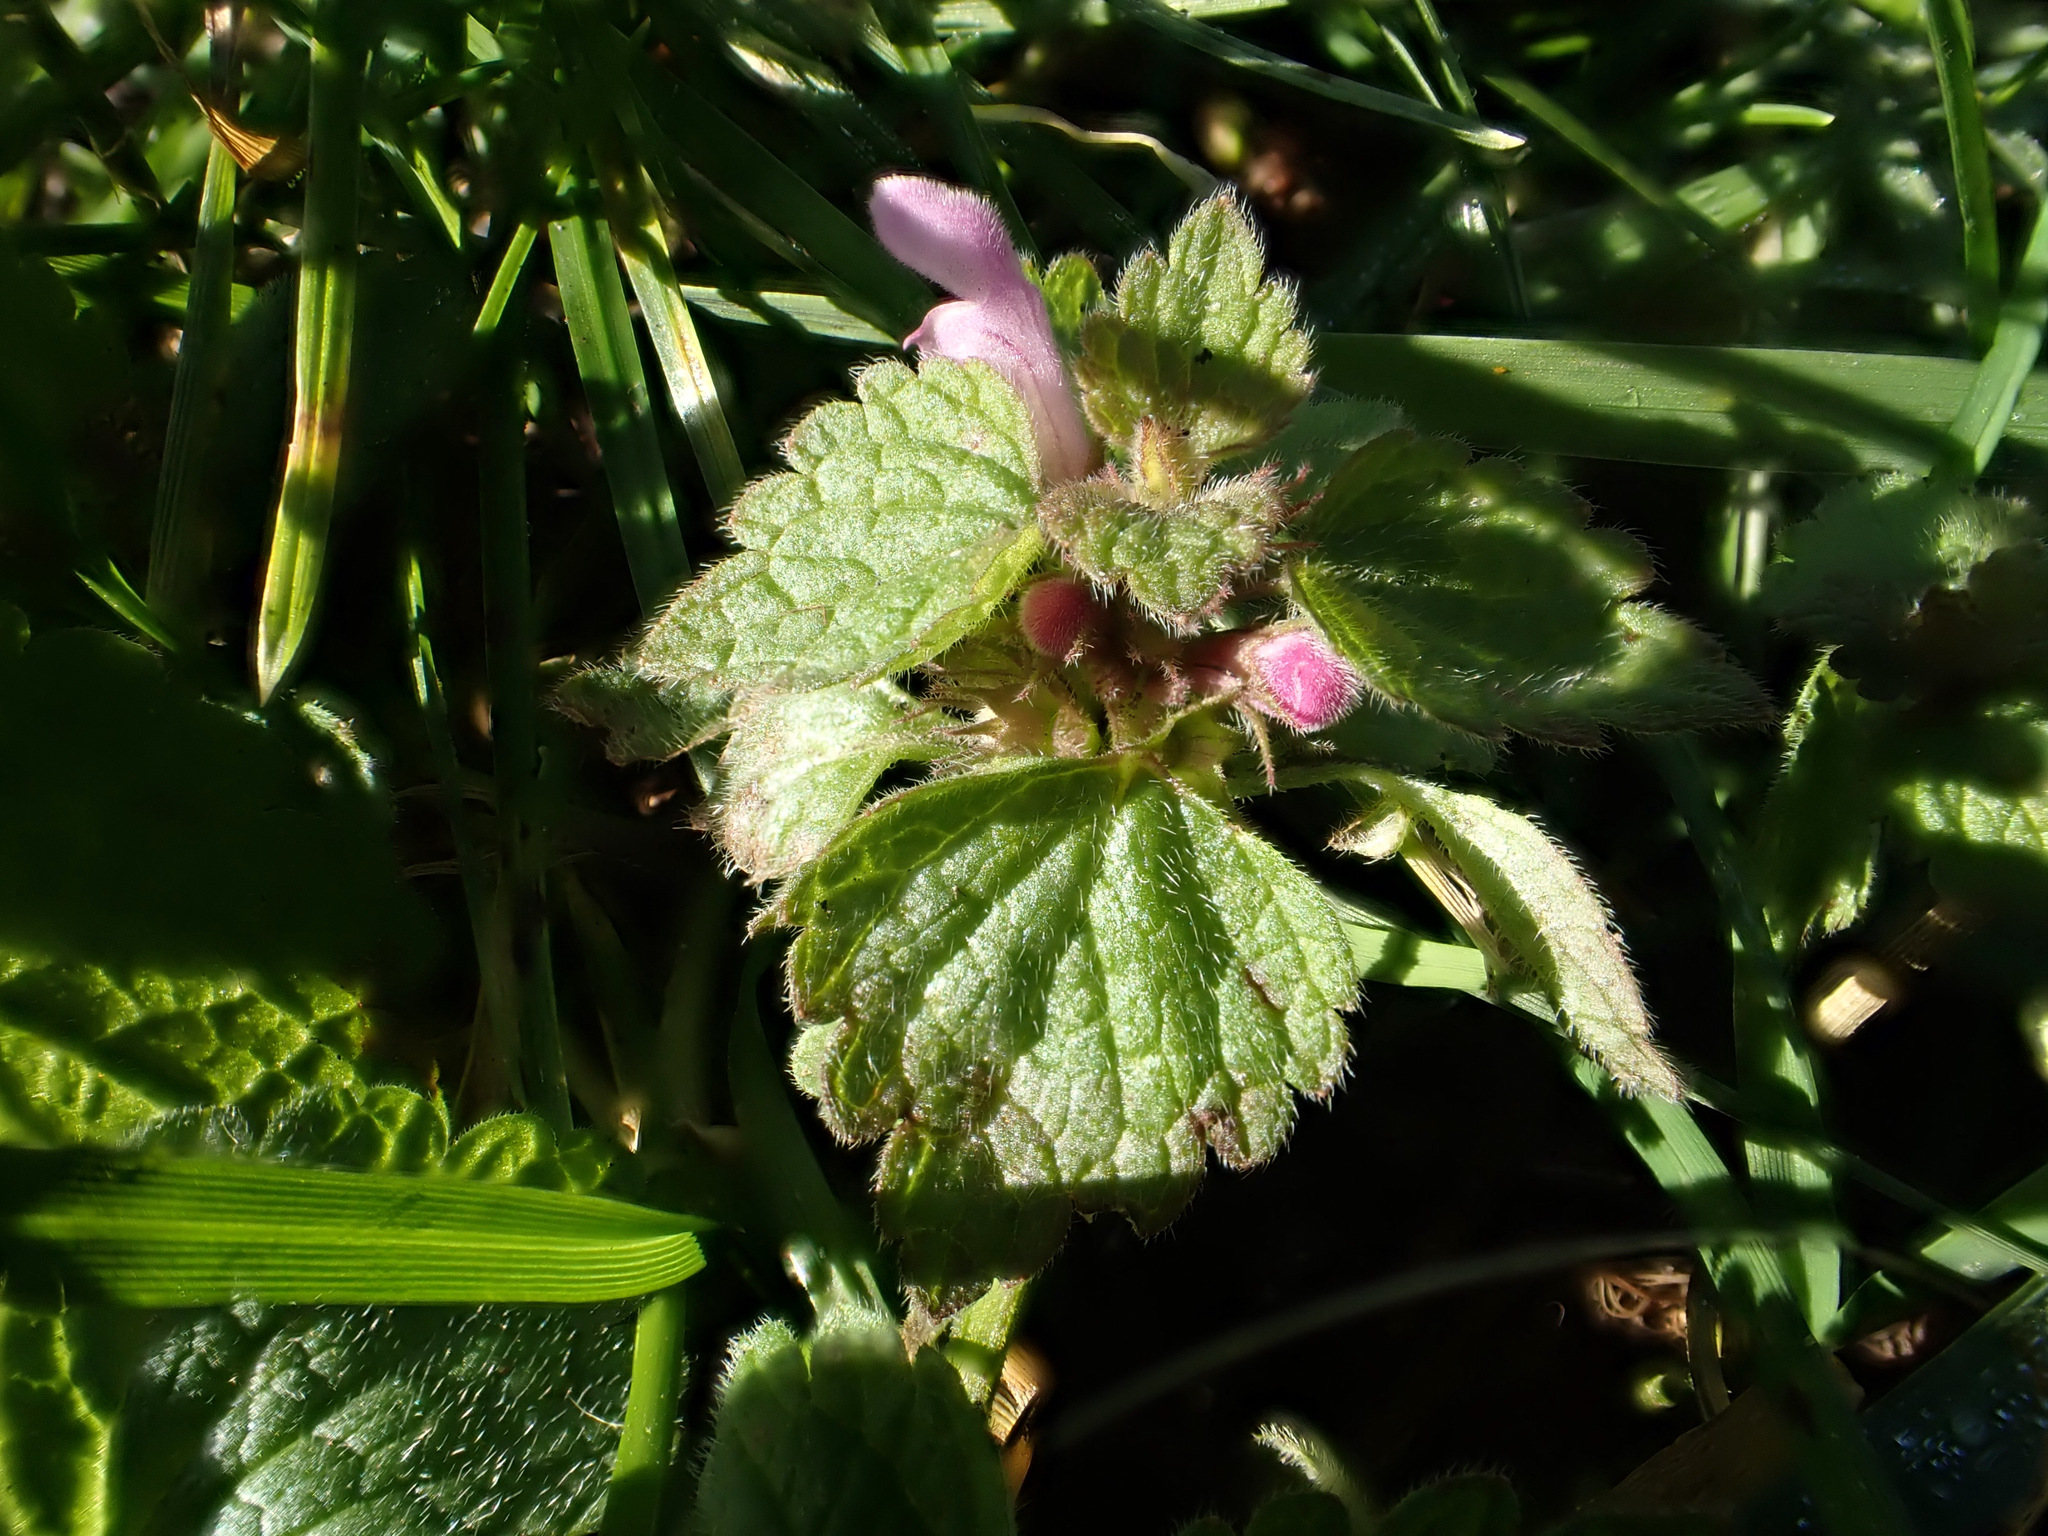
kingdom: Plantae
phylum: Tracheophyta
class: Magnoliopsida
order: Lamiales
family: Lamiaceae
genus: Lamium
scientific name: Lamium purpureum
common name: Red dead-nettle
